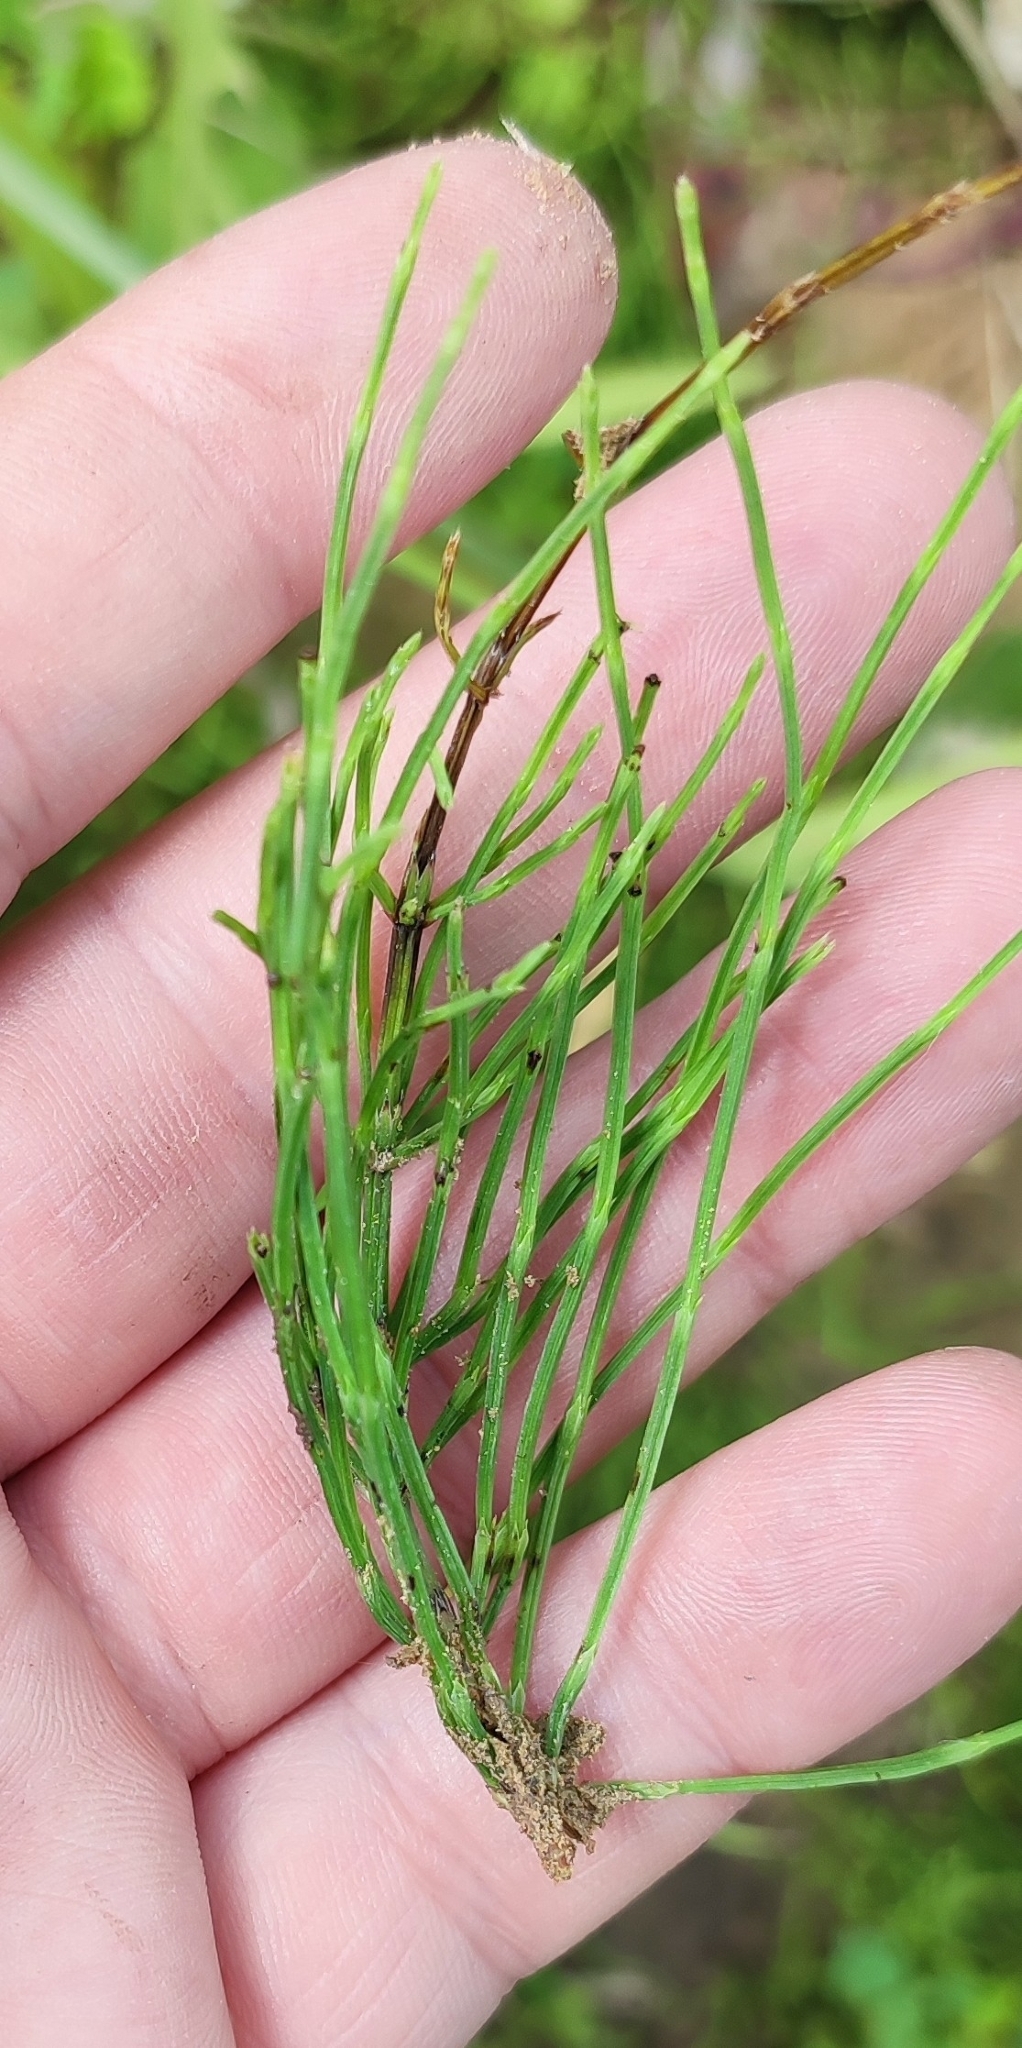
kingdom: Plantae
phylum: Tracheophyta
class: Polypodiopsida
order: Equisetales
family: Equisetaceae
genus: Equisetum
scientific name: Equisetum arvense
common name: Field horsetail
